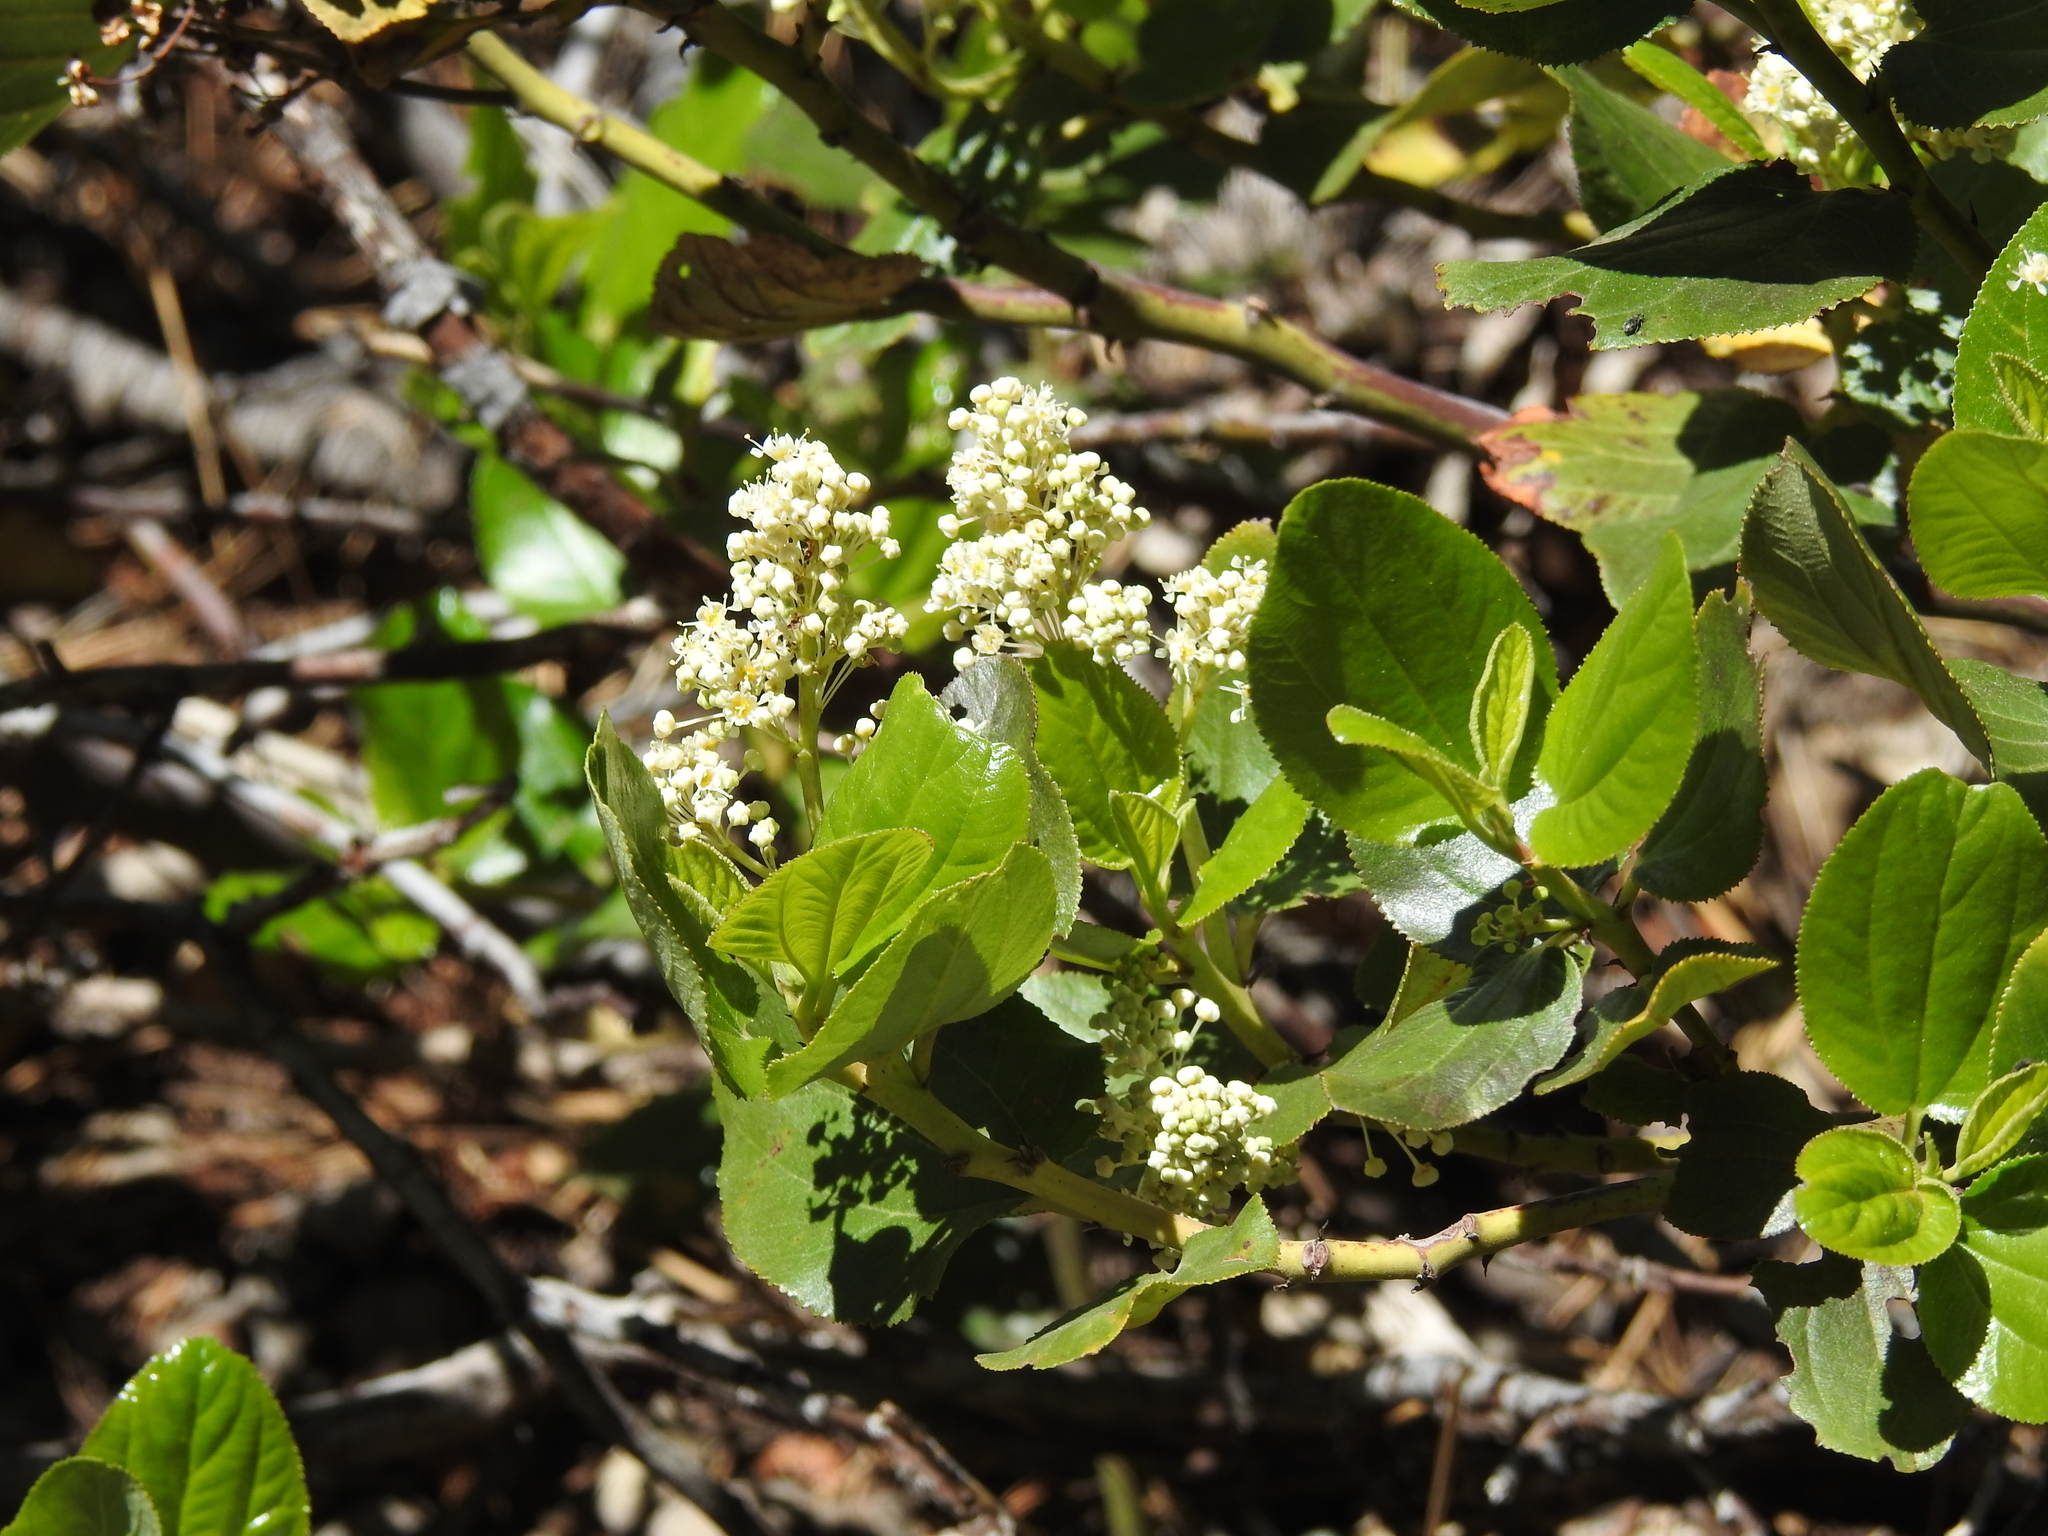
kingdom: Plantae
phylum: Tracheophyta
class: Magnoliopsida
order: Rosales
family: Rhamnaceae
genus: Ceanothus
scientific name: Ceanothus velutinus
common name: Snowbrush
